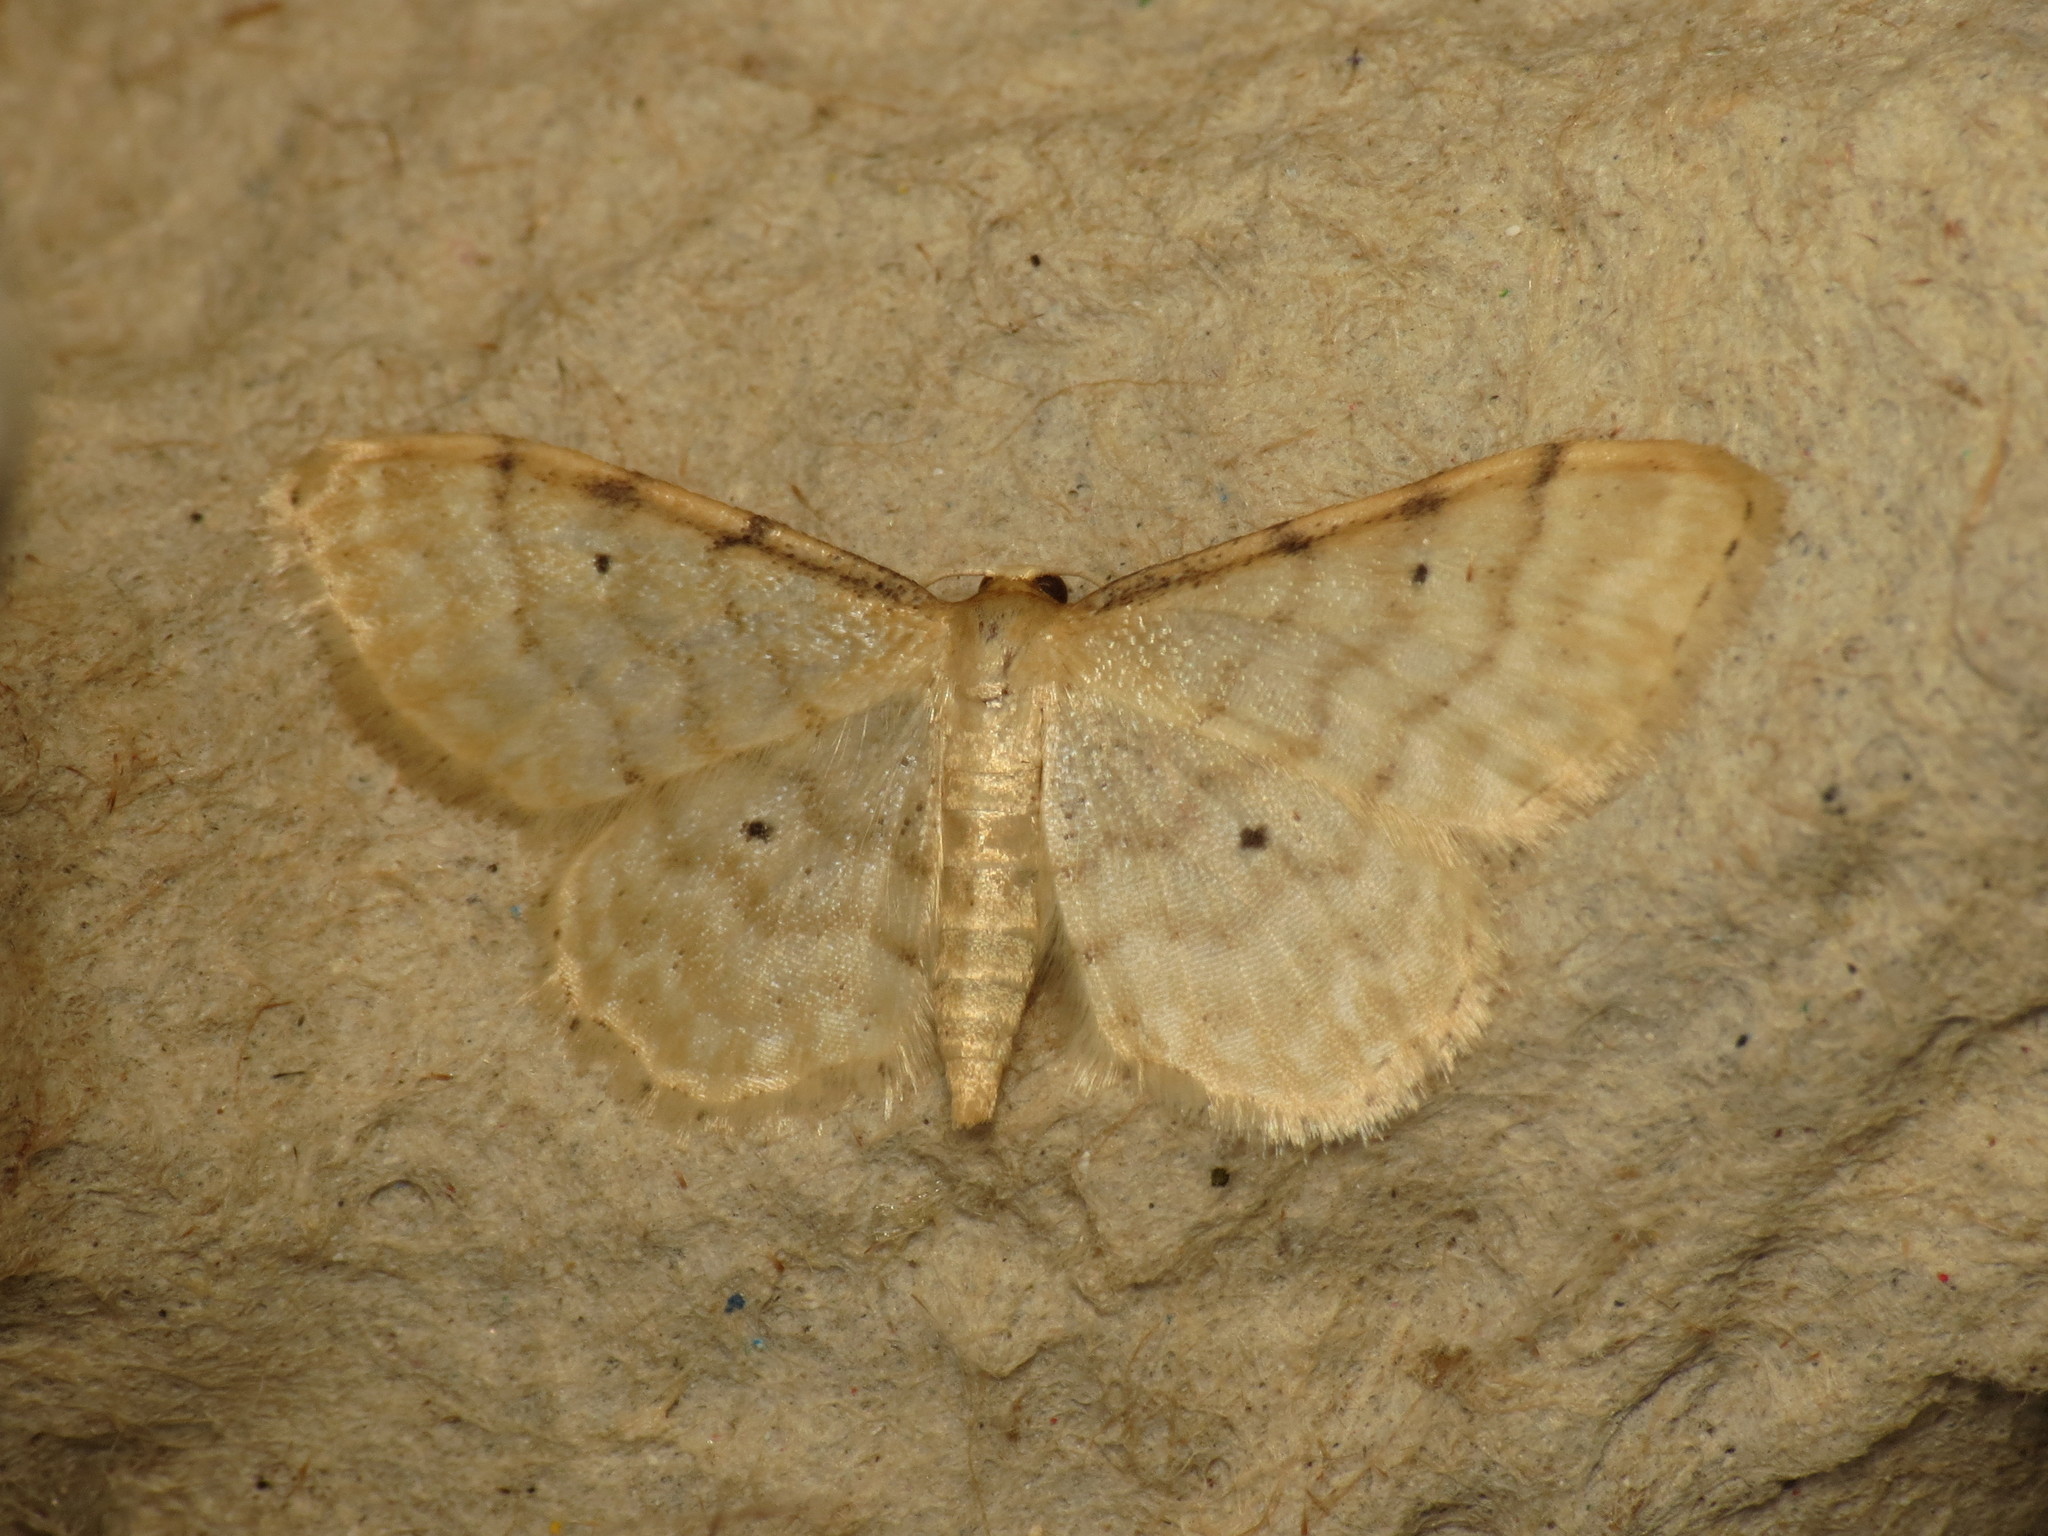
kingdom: Animalia
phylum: Arthropoda
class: Insecta
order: Lepidoptera
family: Geometridae
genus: Idaea
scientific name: Idaea fuscovenosa
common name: Dwarf cream wave
